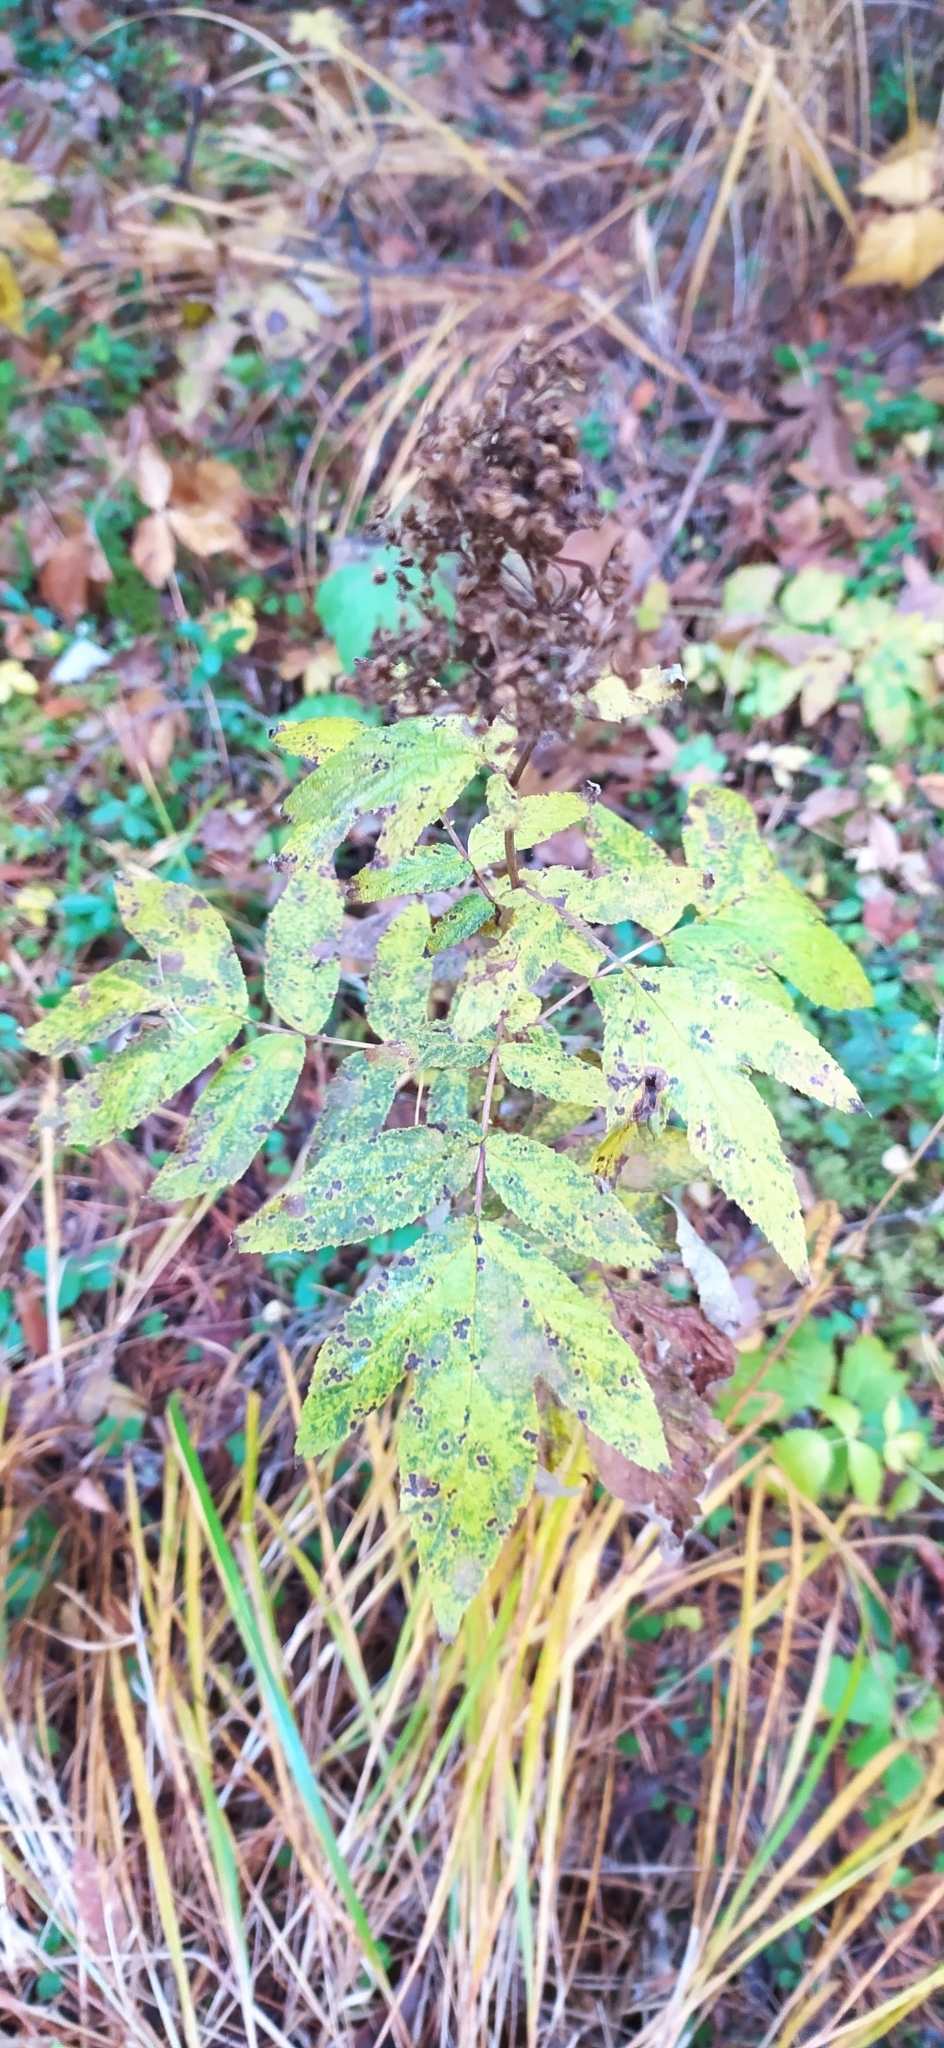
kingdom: Plantae
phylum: Tracheophyta
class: Magnoliopsida
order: Rosales
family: Rosaceae
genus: Filipendula
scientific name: Filipendula ulmaria
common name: Meadowsweet
